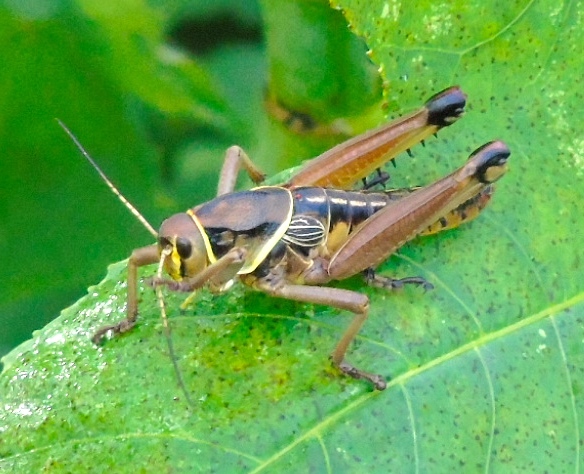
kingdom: Animalia
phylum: Arthropoda
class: Insecta
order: Orthoptera
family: Romaleidae
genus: Brachystola
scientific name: Brachystola
